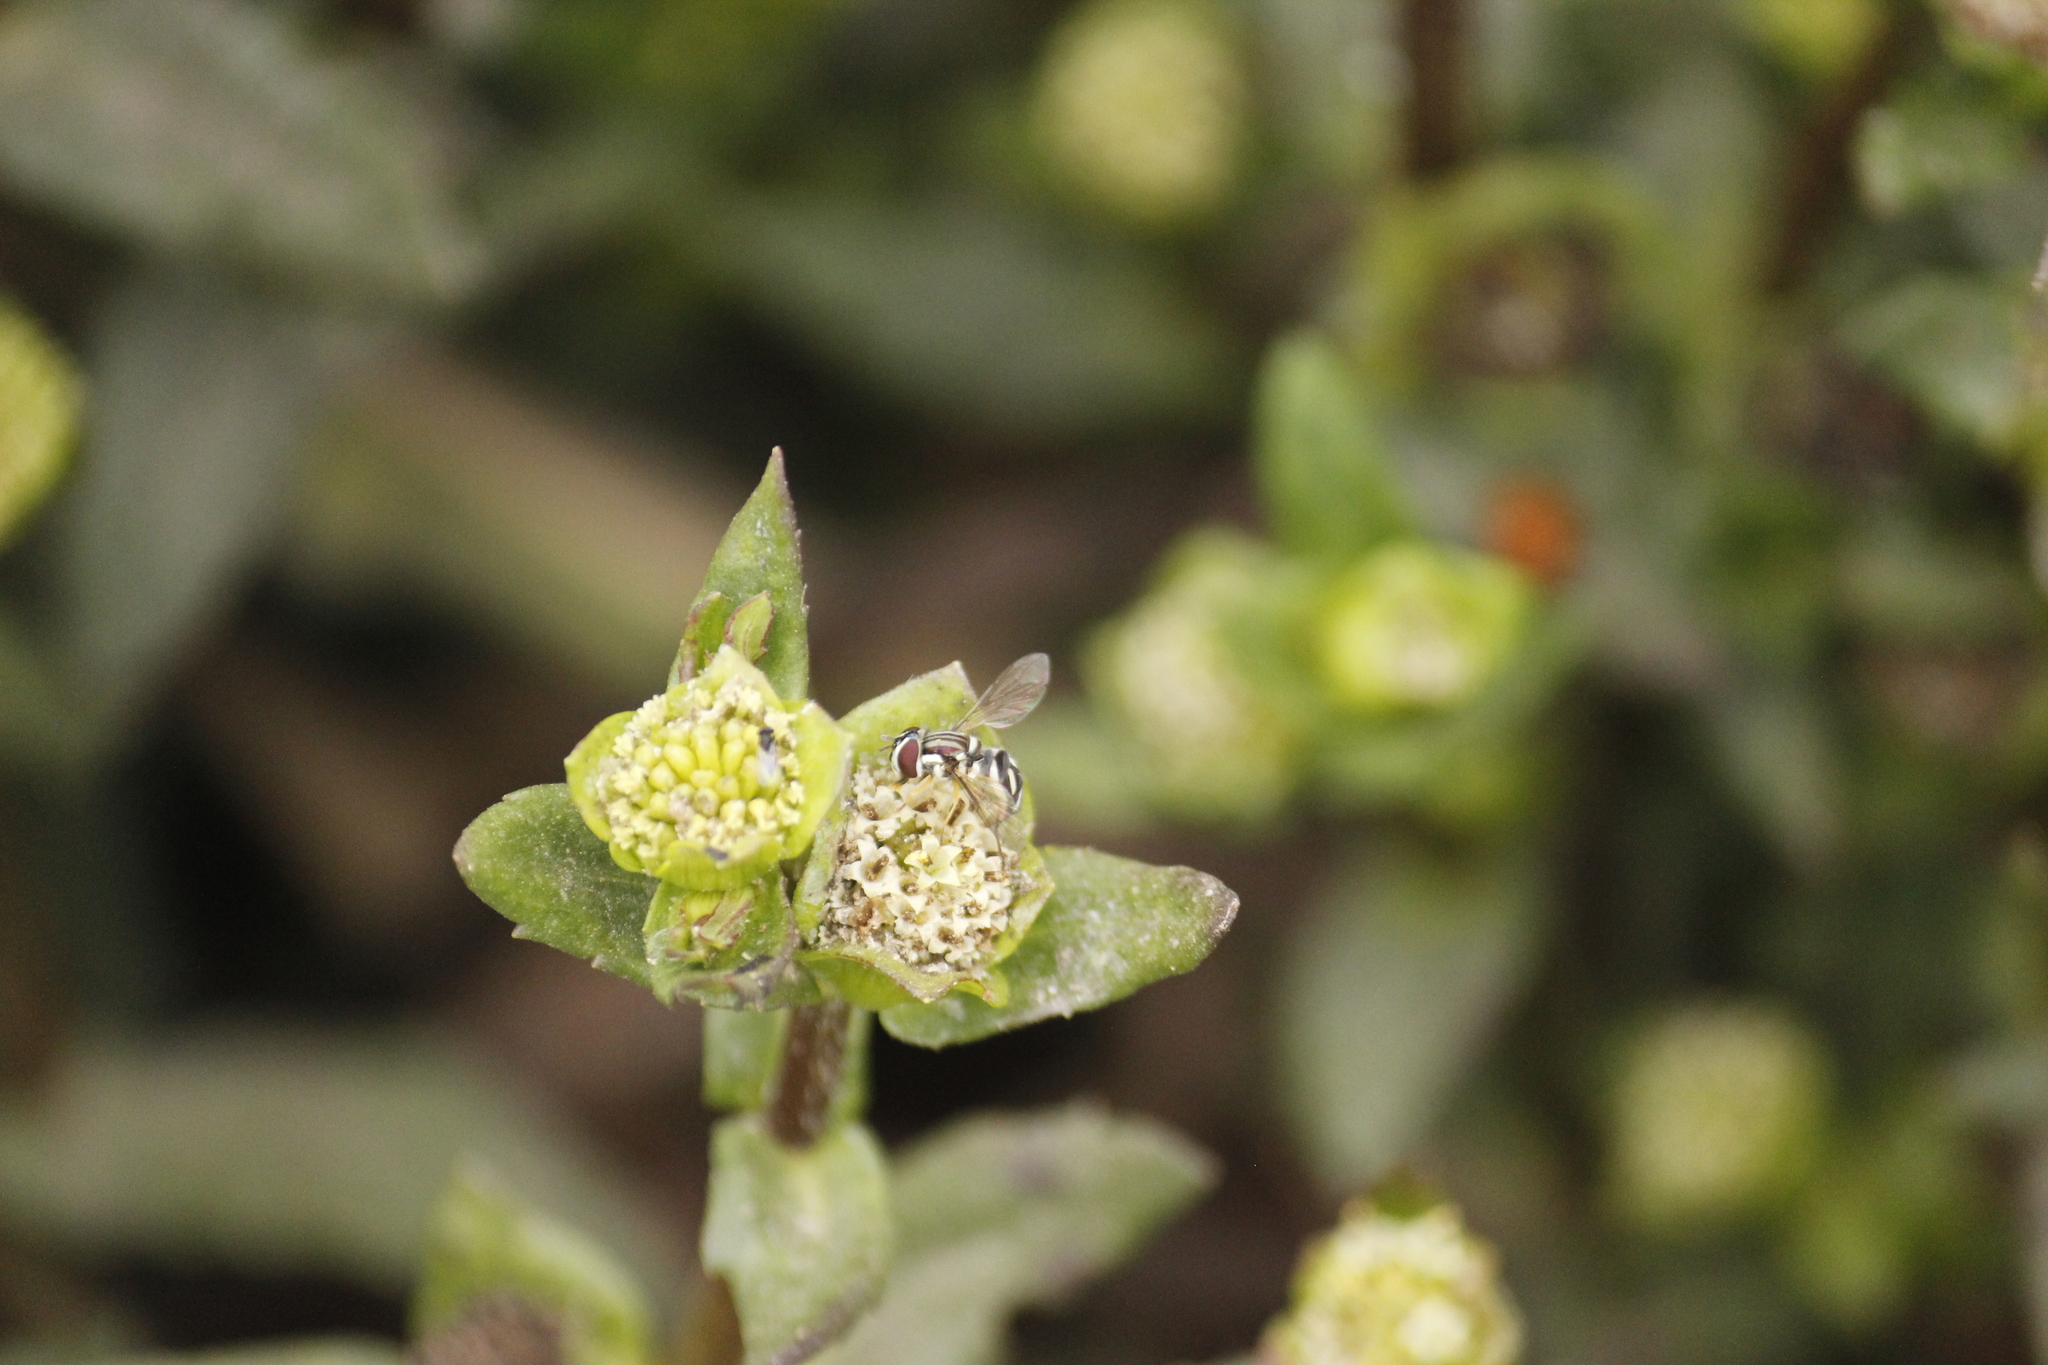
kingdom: Animalia
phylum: Arthropoda
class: Insecta
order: Diptera
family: Syrphidae
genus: Allograpta
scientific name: Allograpta piurana
